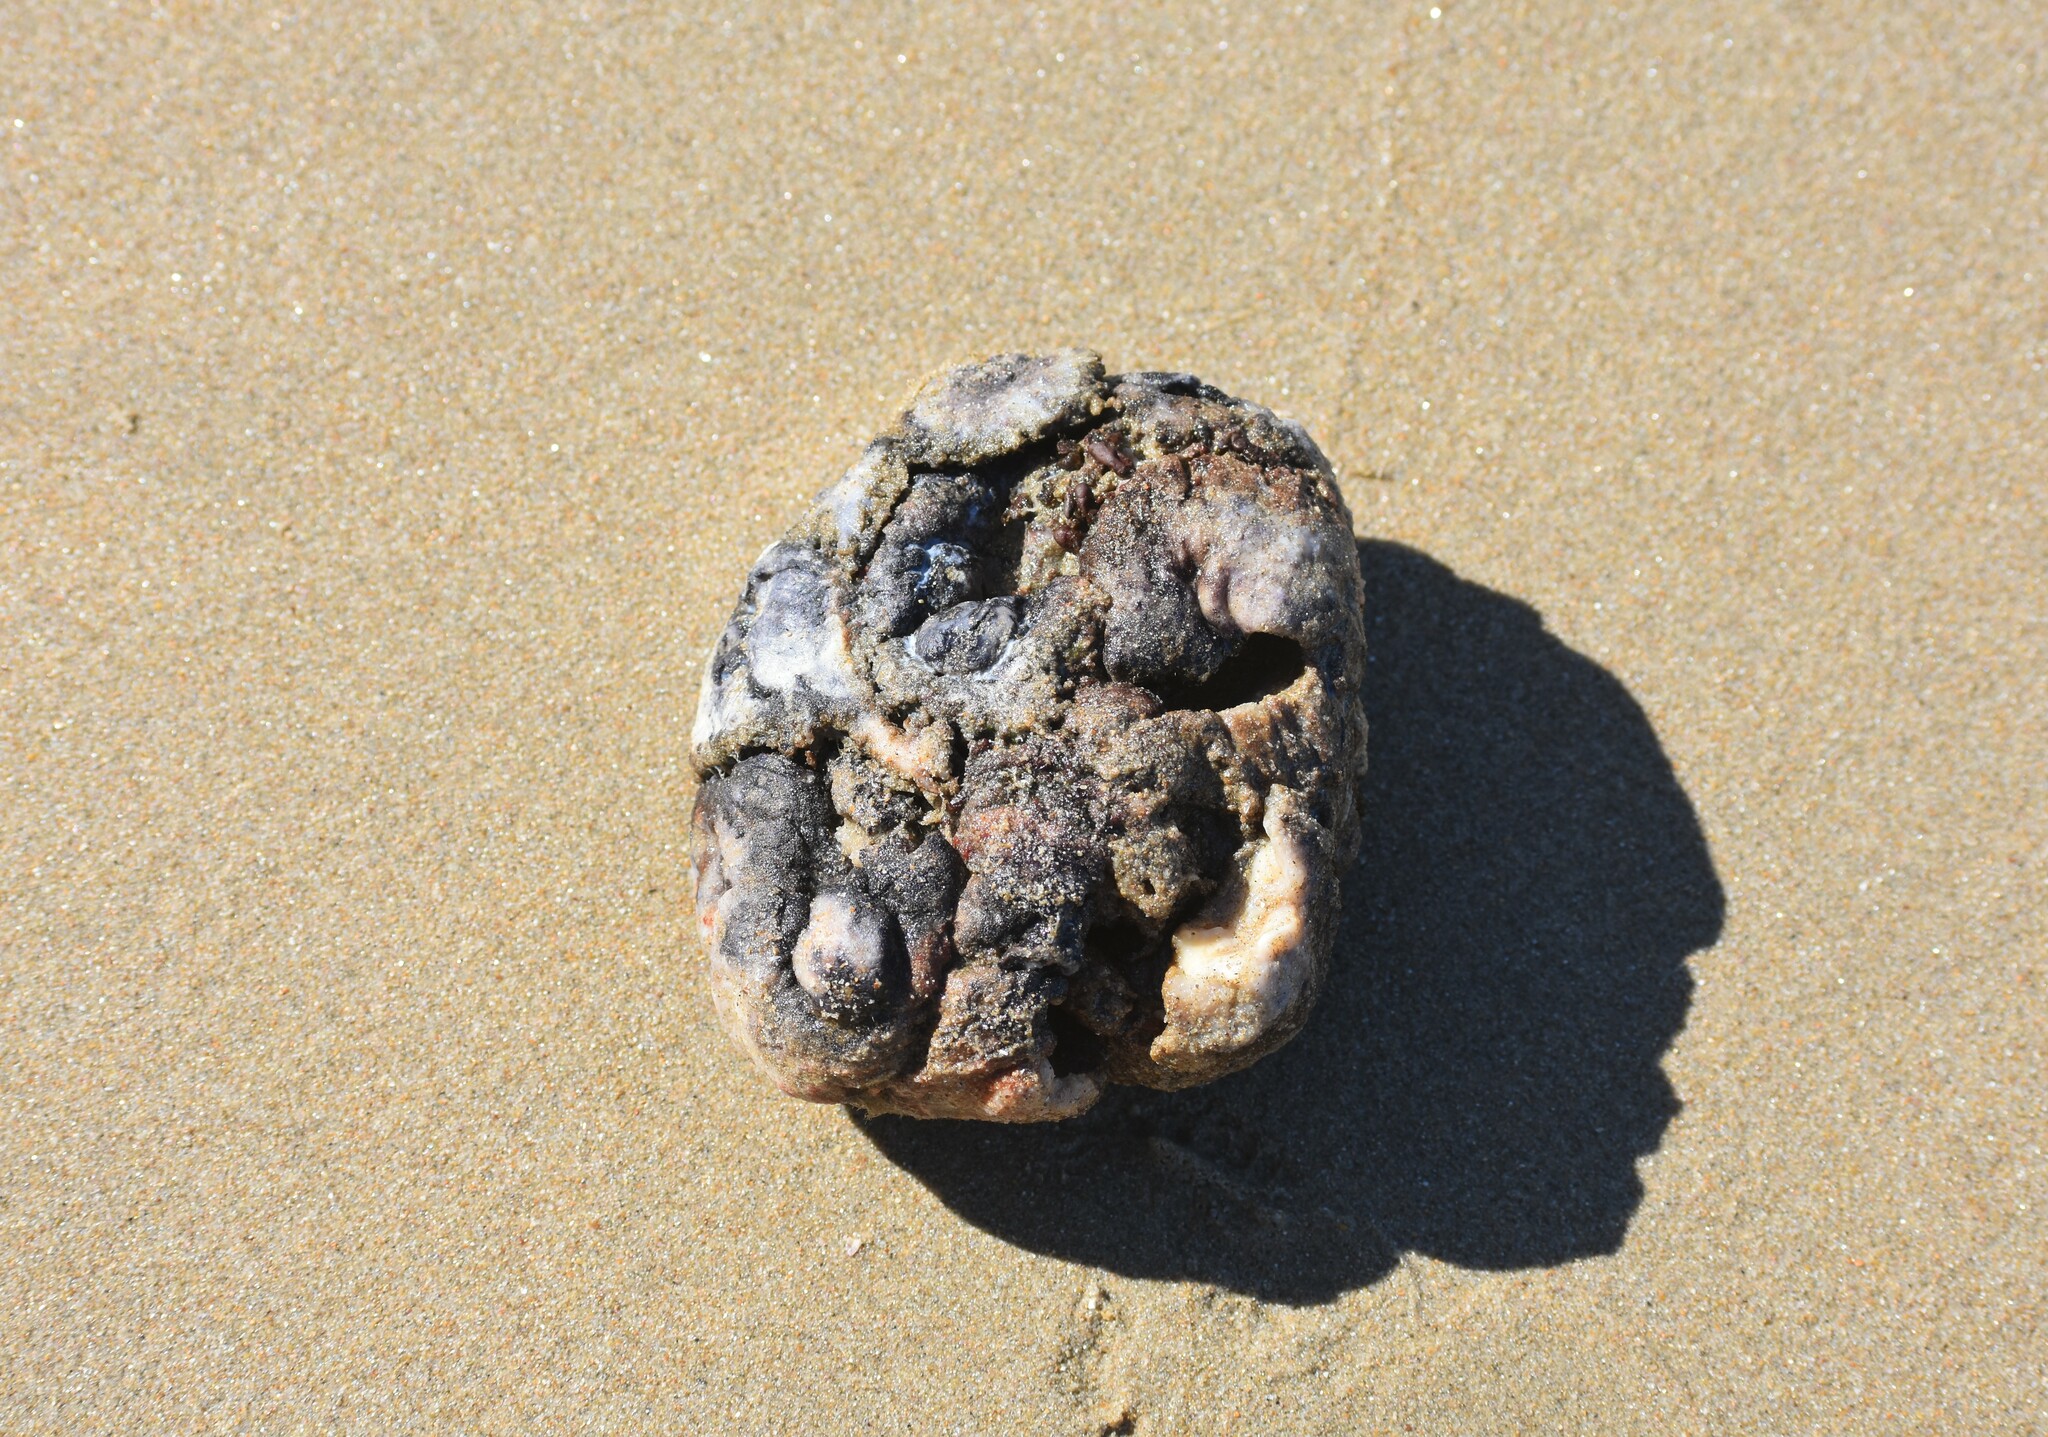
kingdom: Animalia
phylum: Chordata
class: Ascidiacea
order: Stolidobranchia
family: Pyuridae
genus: Pyura
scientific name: Pyura stolonifera
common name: Red bait
